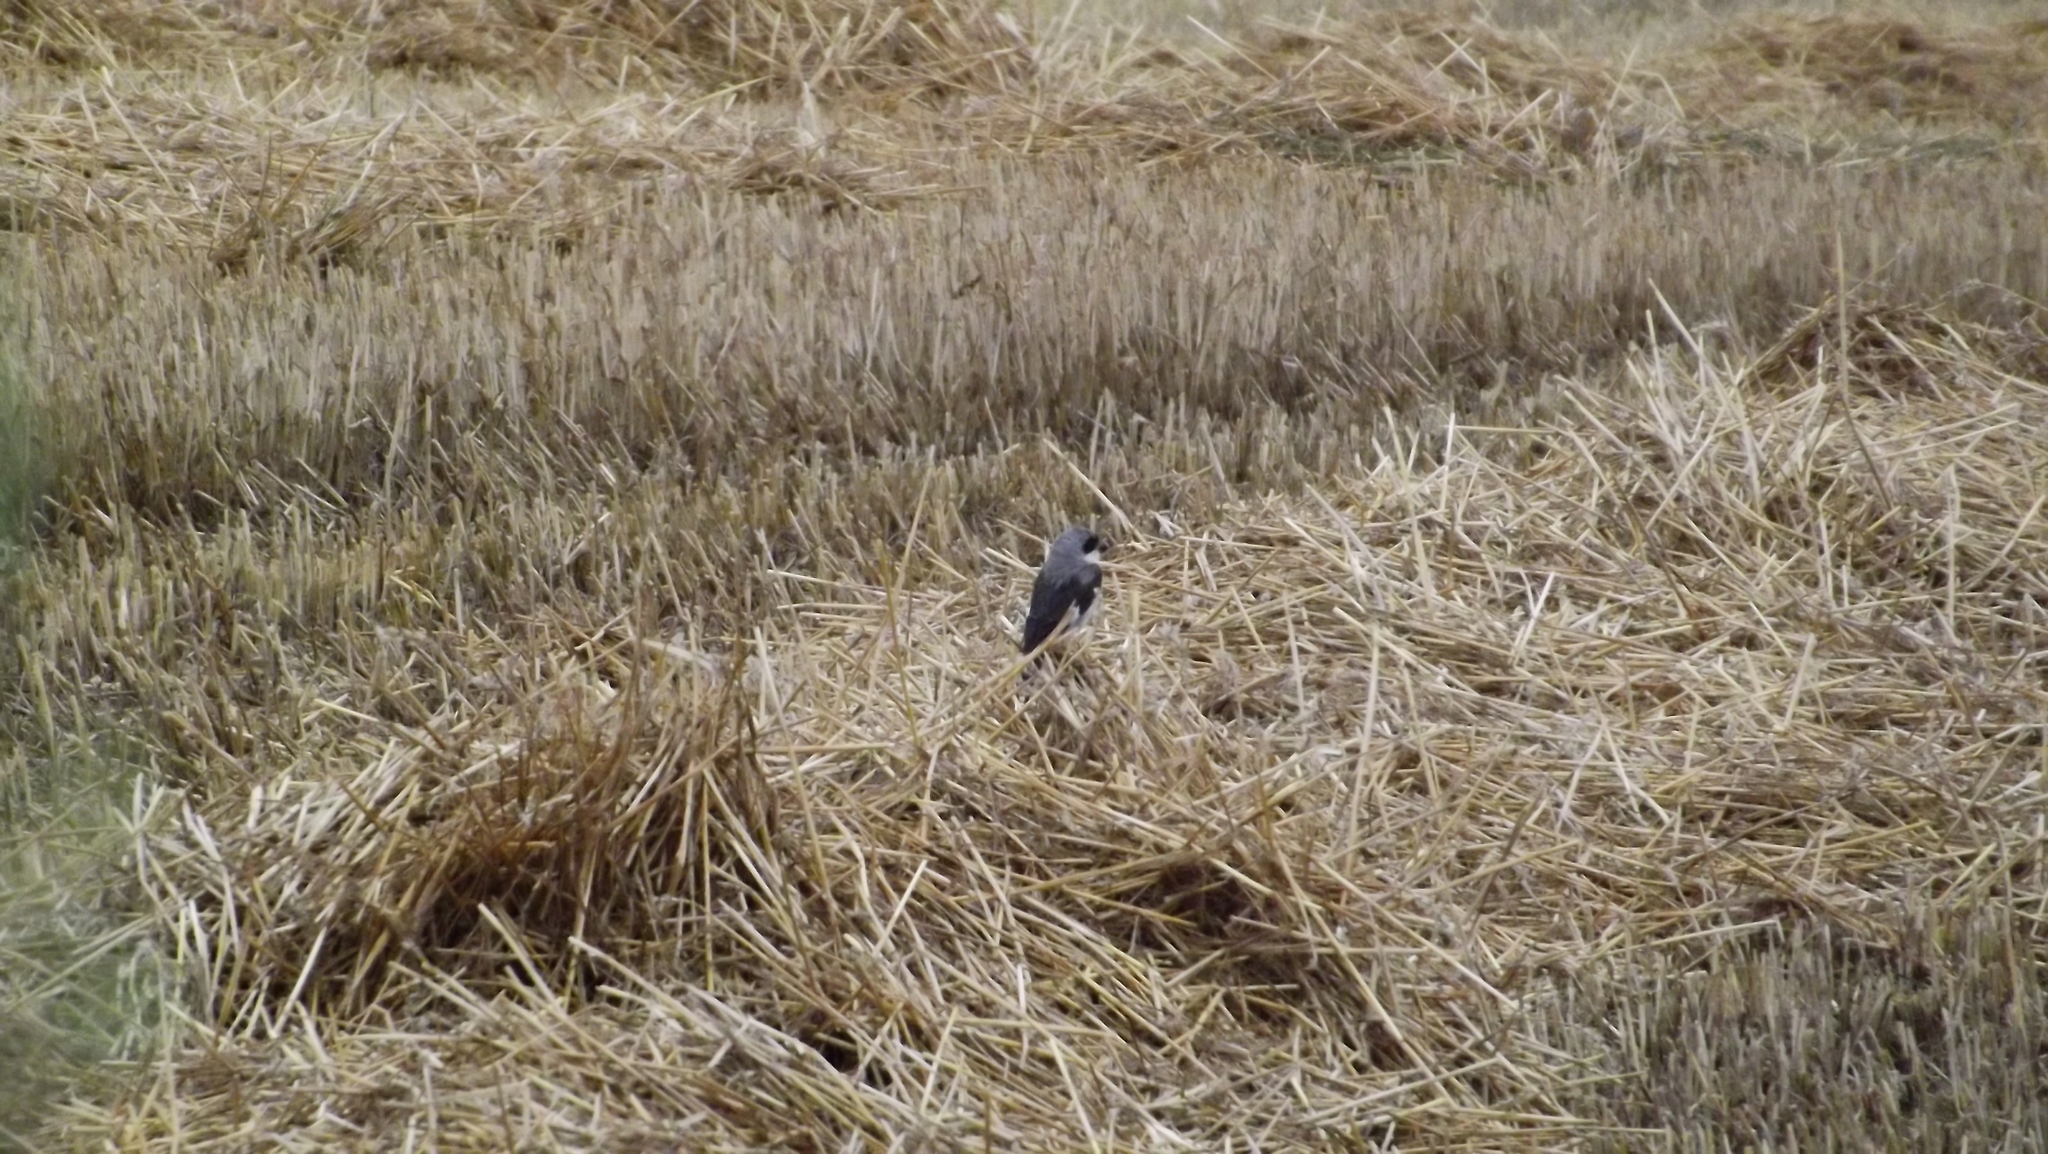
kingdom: Animalia
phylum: Chordata
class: Aves
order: Passeriformes
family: Laniidae
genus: Lanius
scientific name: Lanius excubitor
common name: Great grey shrike
